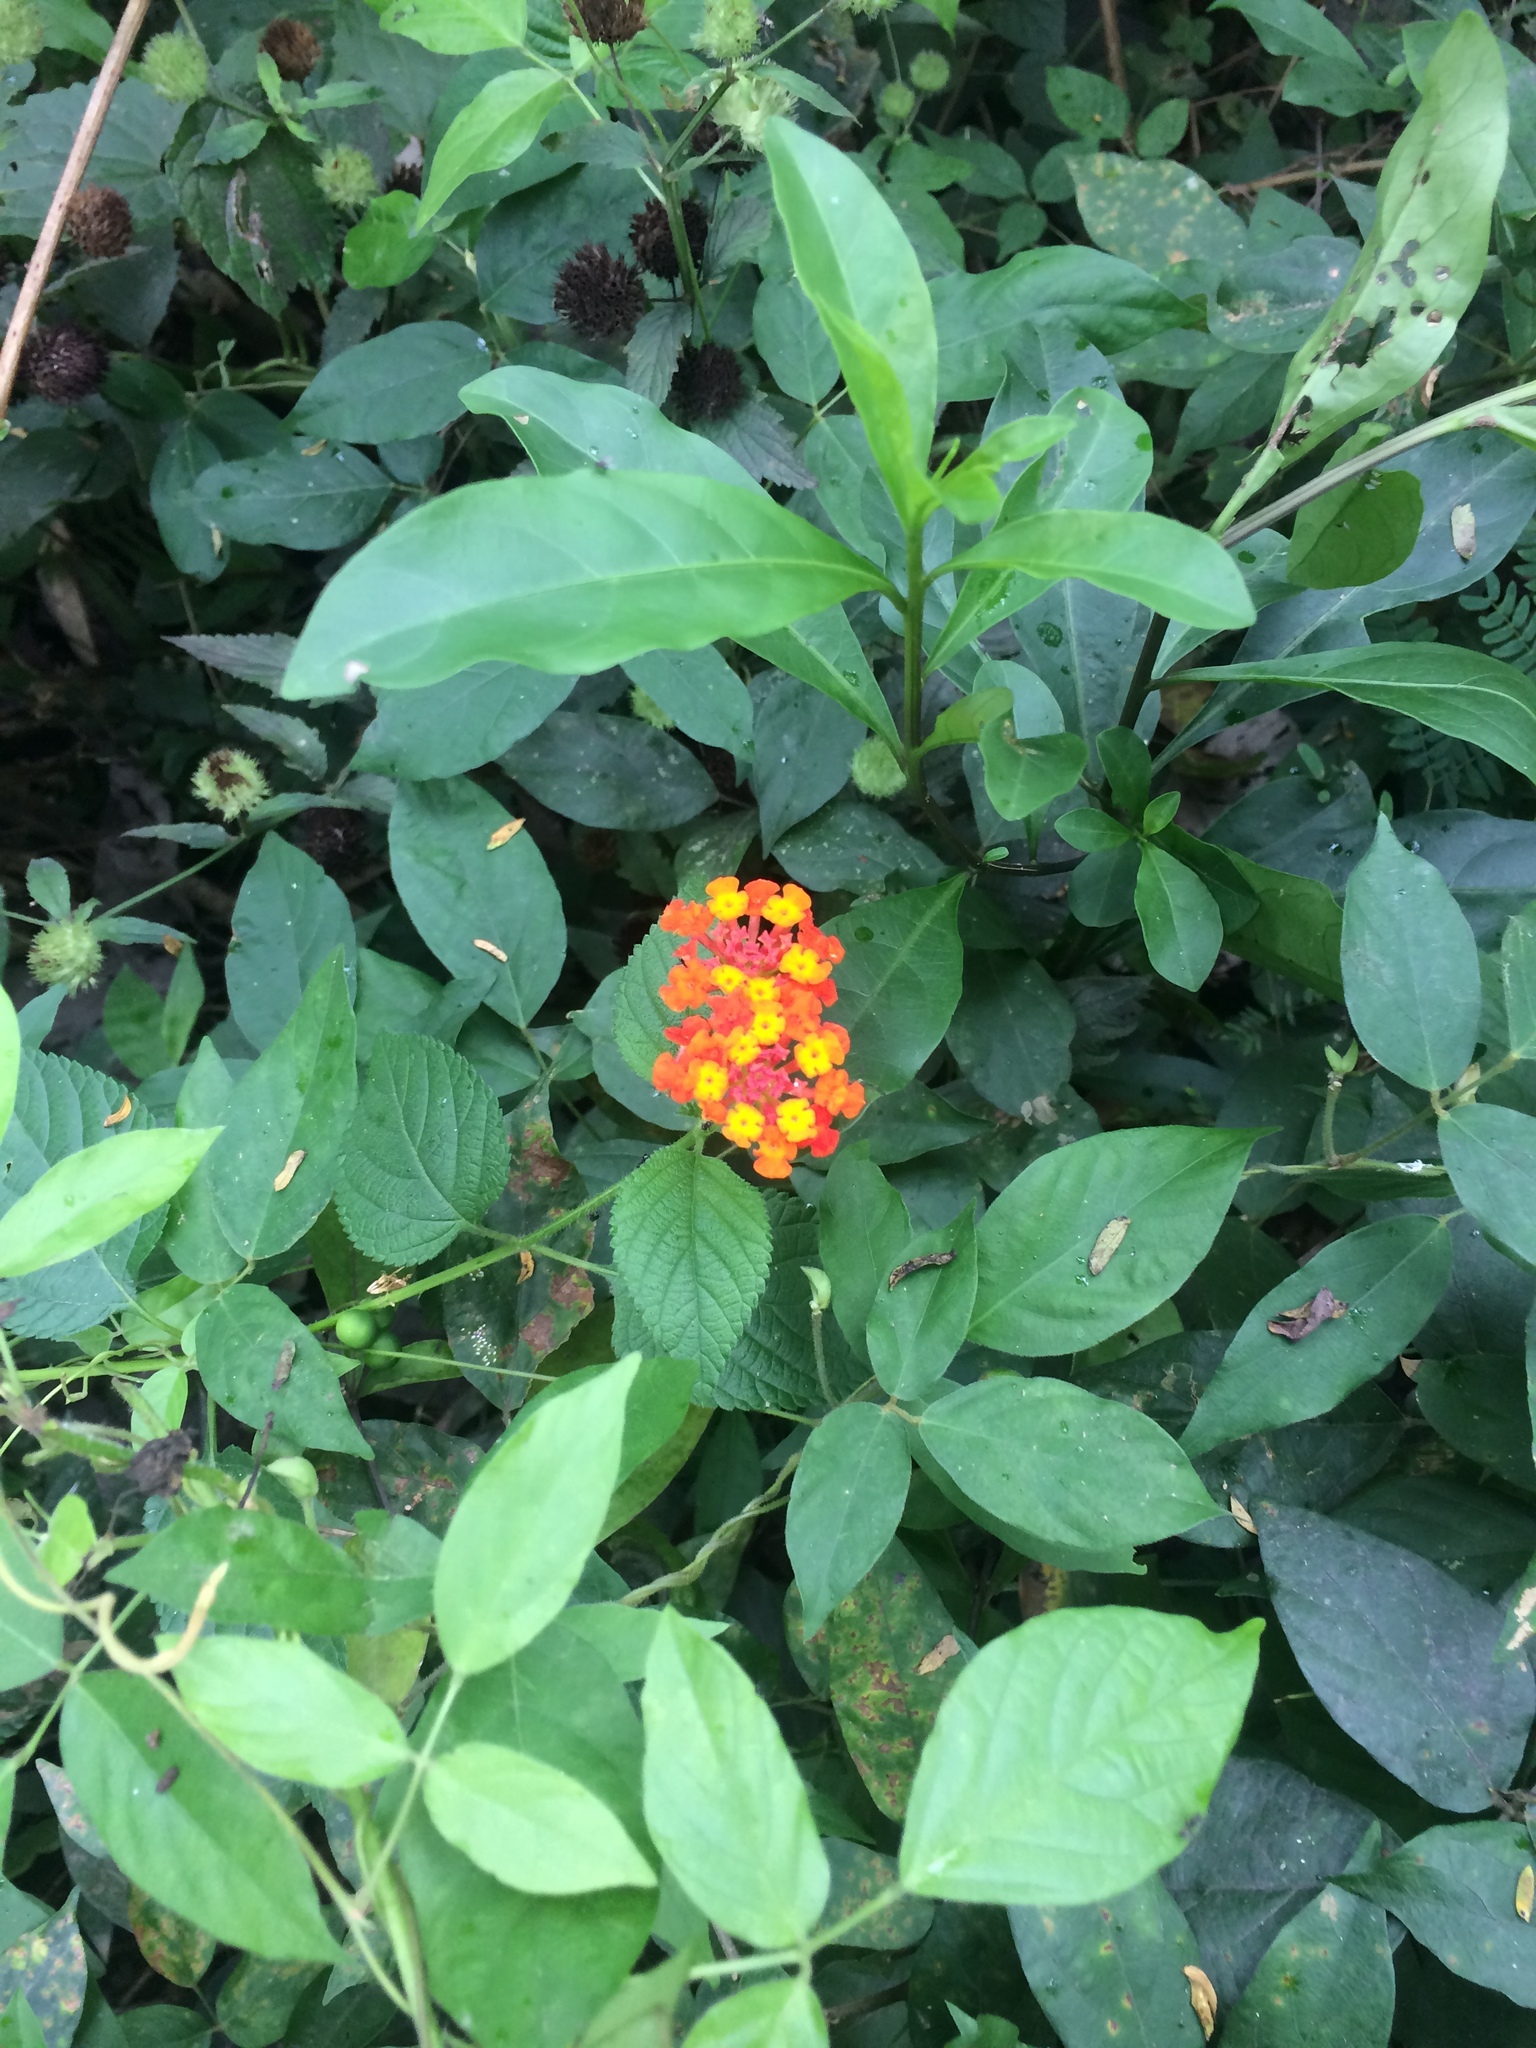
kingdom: Plantae
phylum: Tracheophyta
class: Magnoliopsida
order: Lamiales
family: Verbenaceae
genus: Lantana
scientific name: Lantana camara
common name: Lantana
